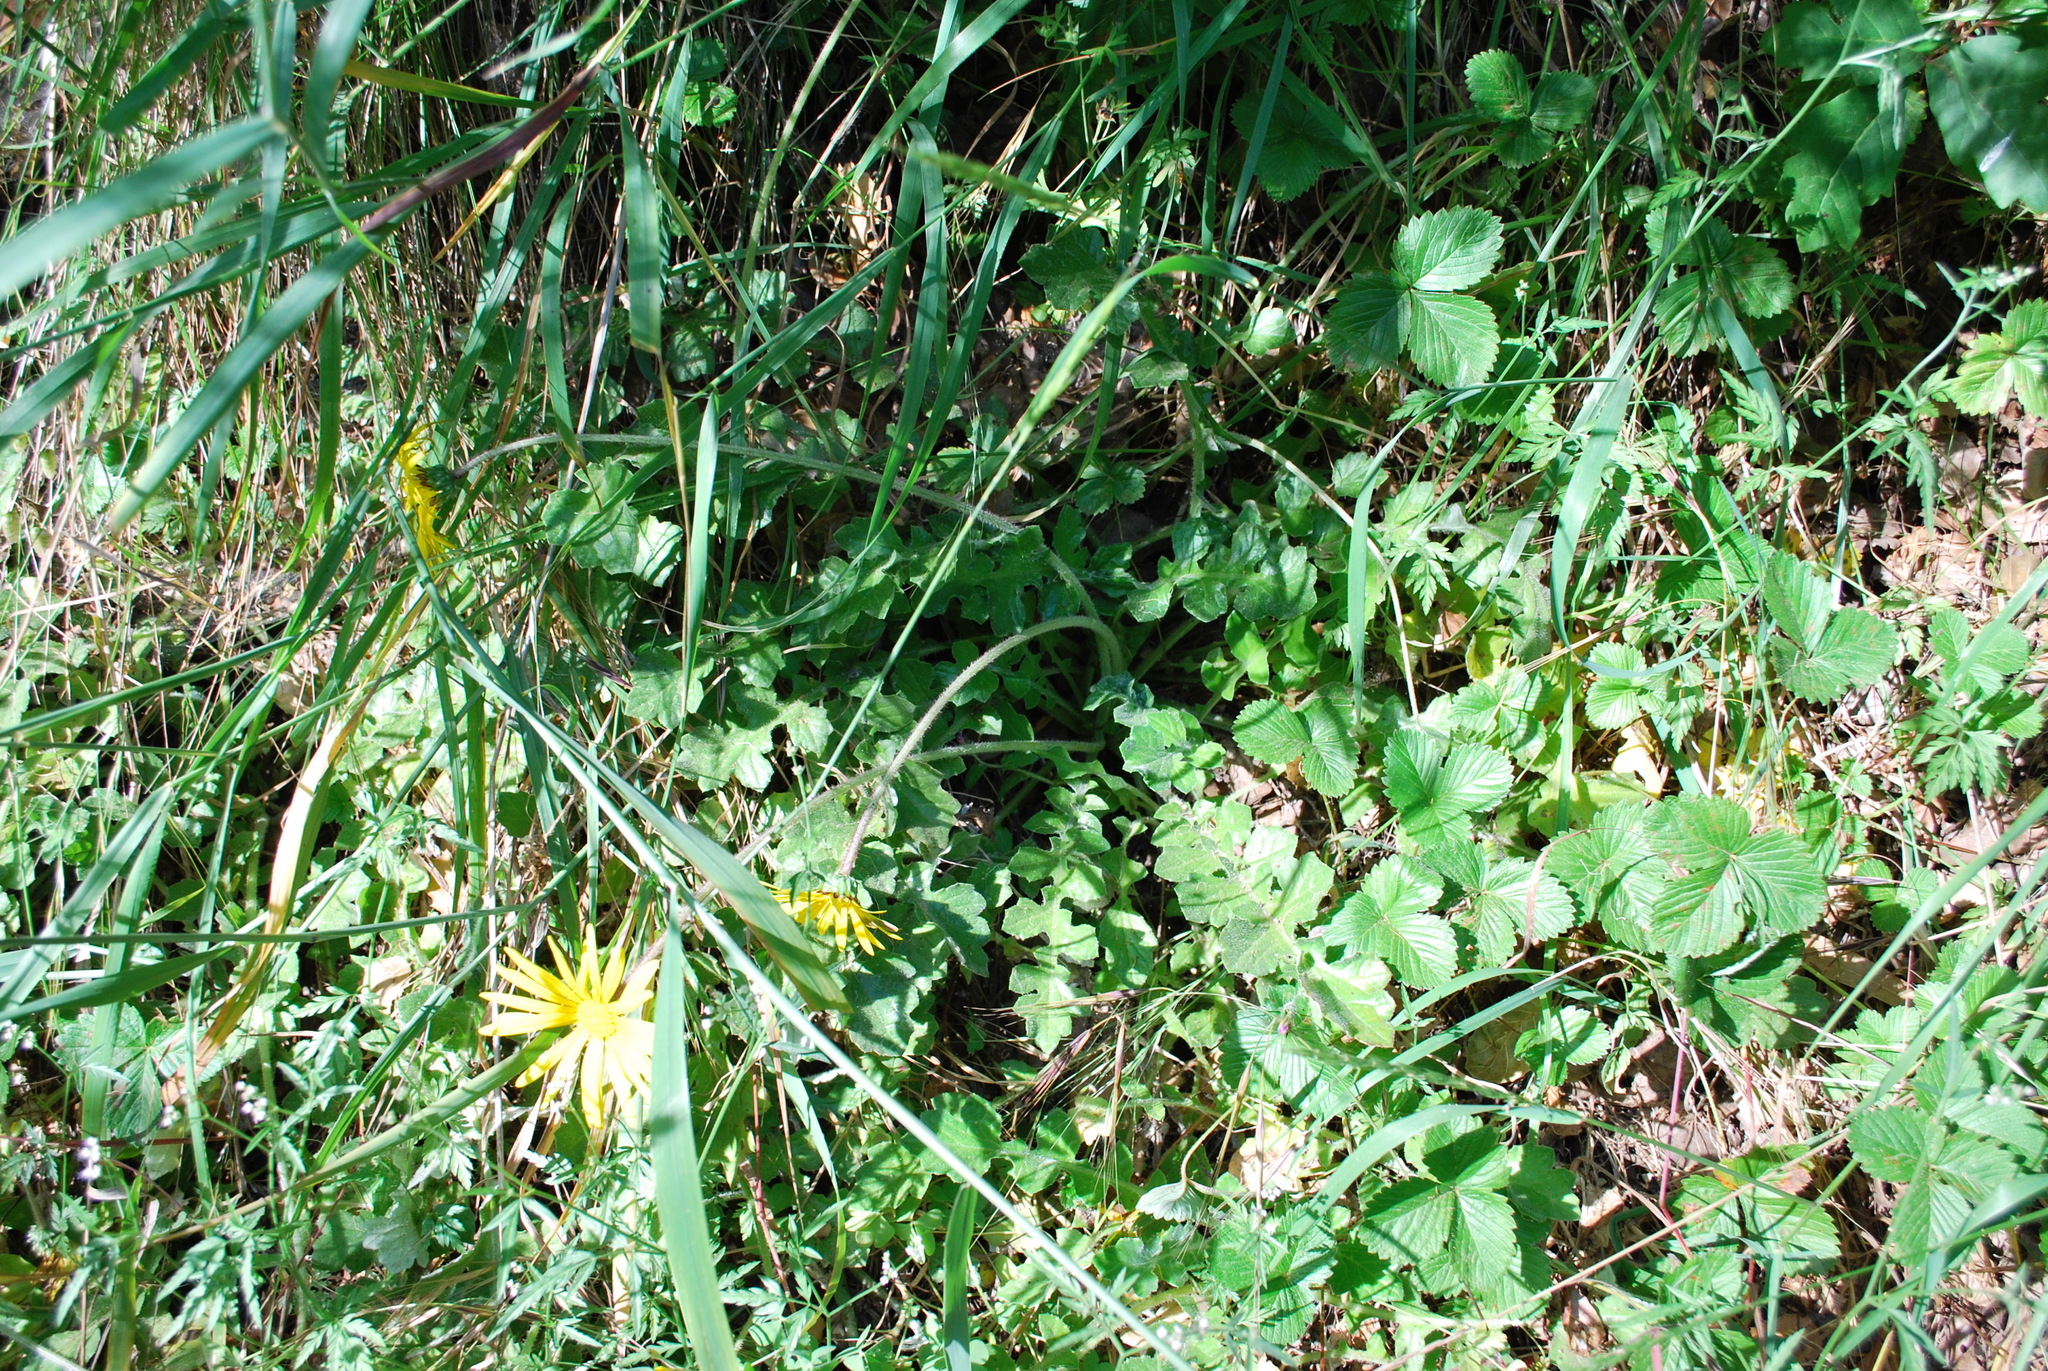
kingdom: Plantae
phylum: Tracheophyta
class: Magnoliopsida
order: Asterales
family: Asteraceae
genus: Arctotheca
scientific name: Arctotheca prostrata
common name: Capeweed
